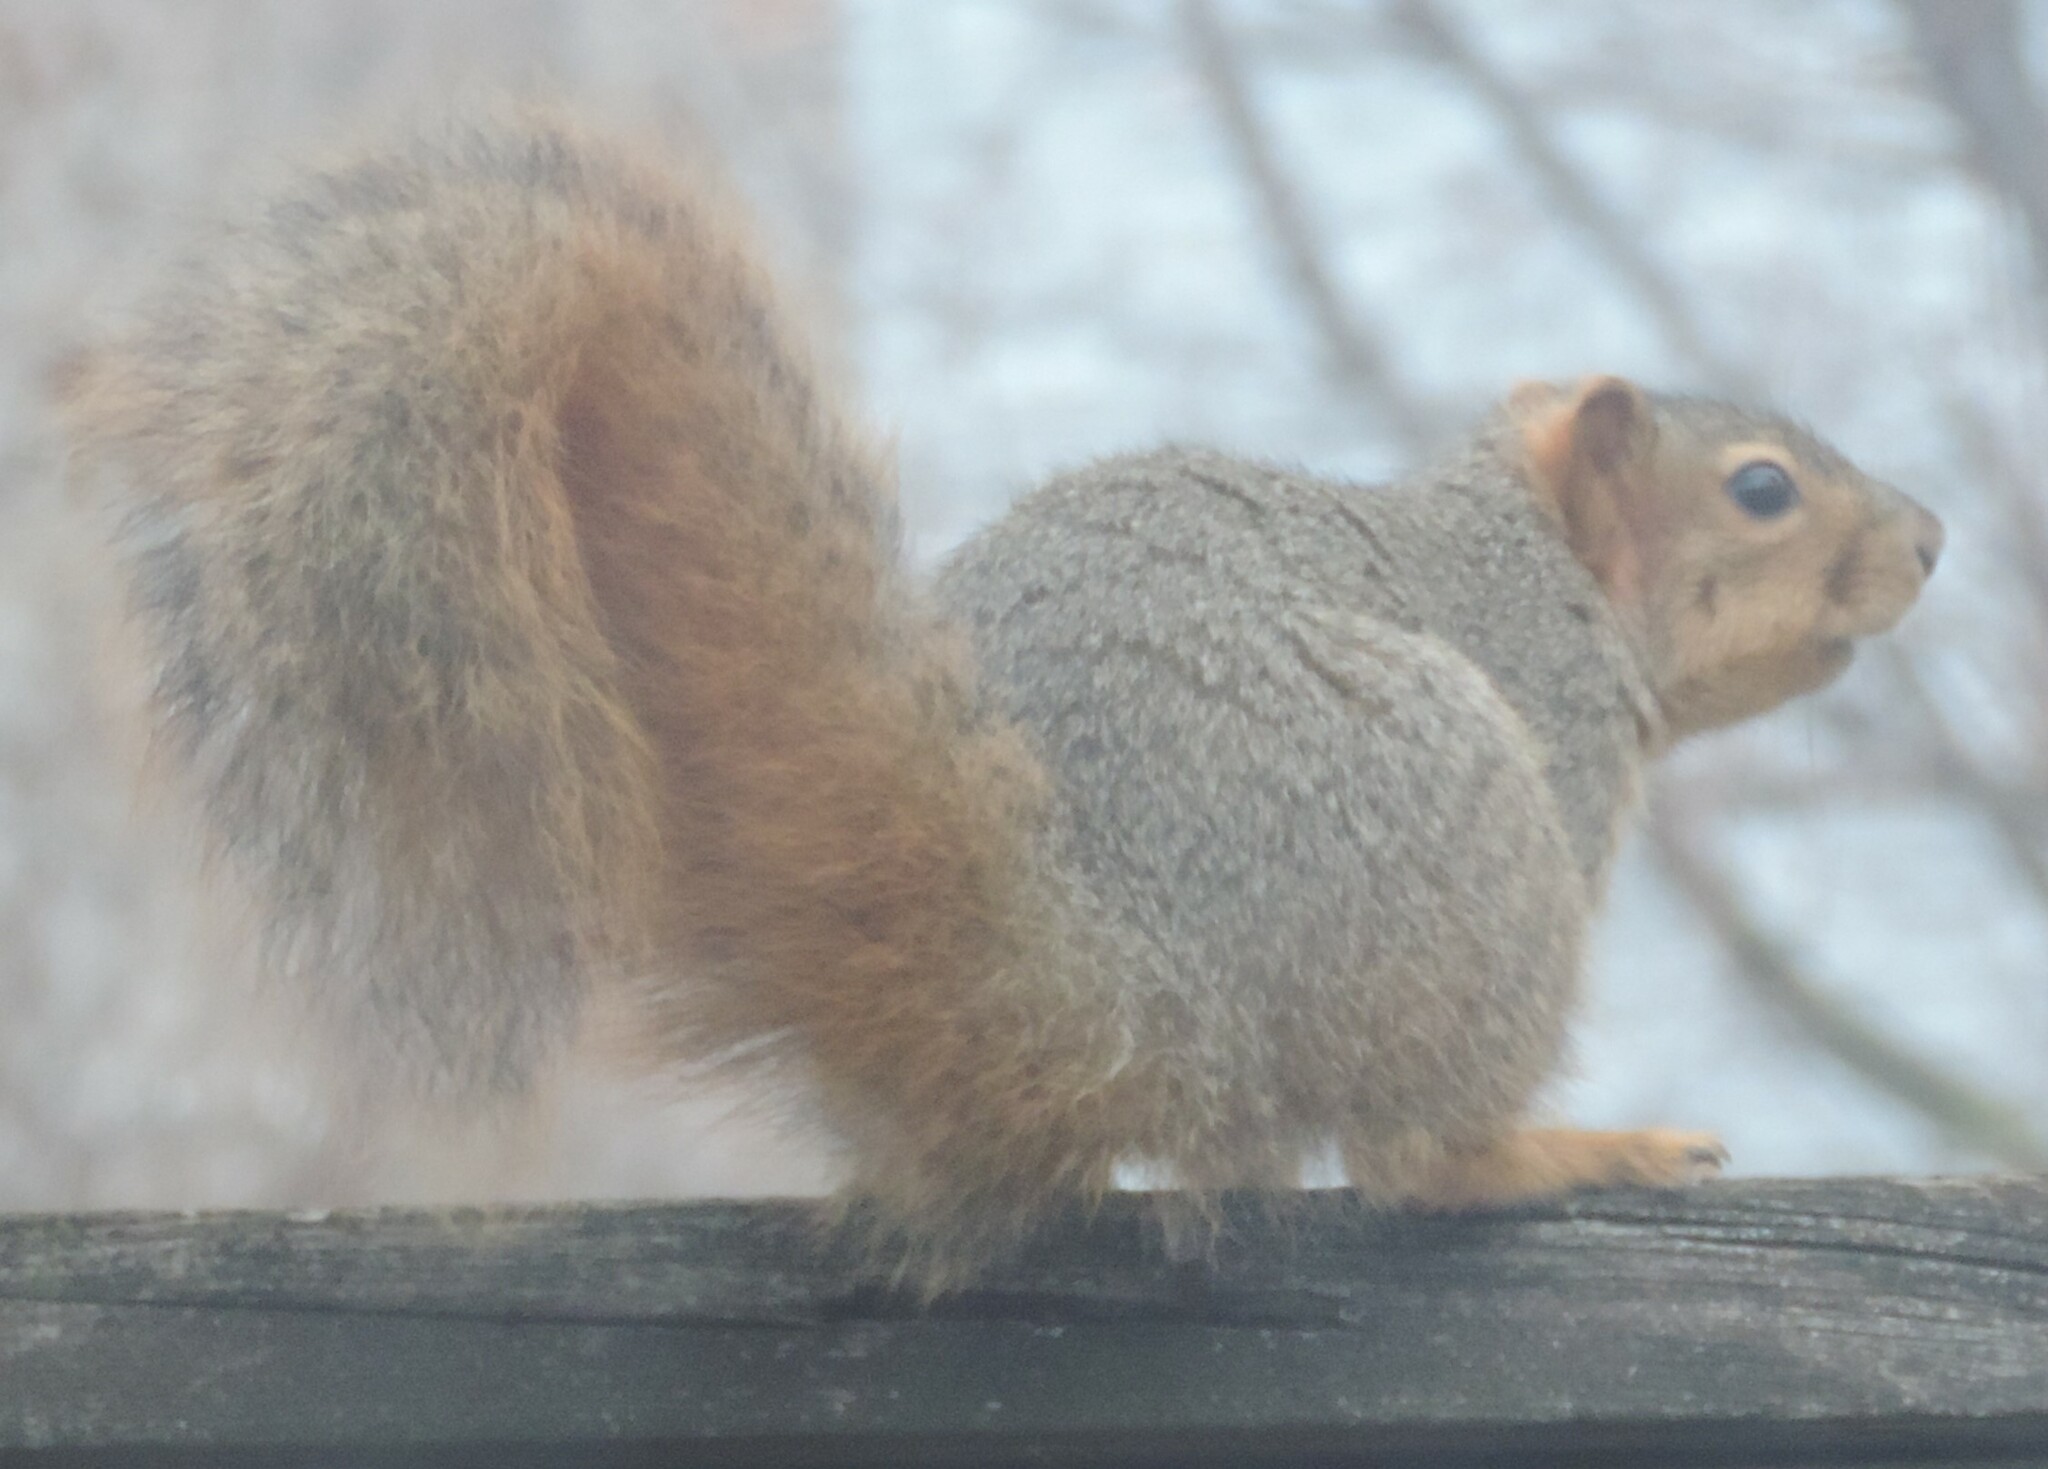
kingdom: Animalia
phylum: Chordata
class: Mammalia
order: Rodentia
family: Sciuridae
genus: Sciurus
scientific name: Sciurus niger
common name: Fox squirrel
